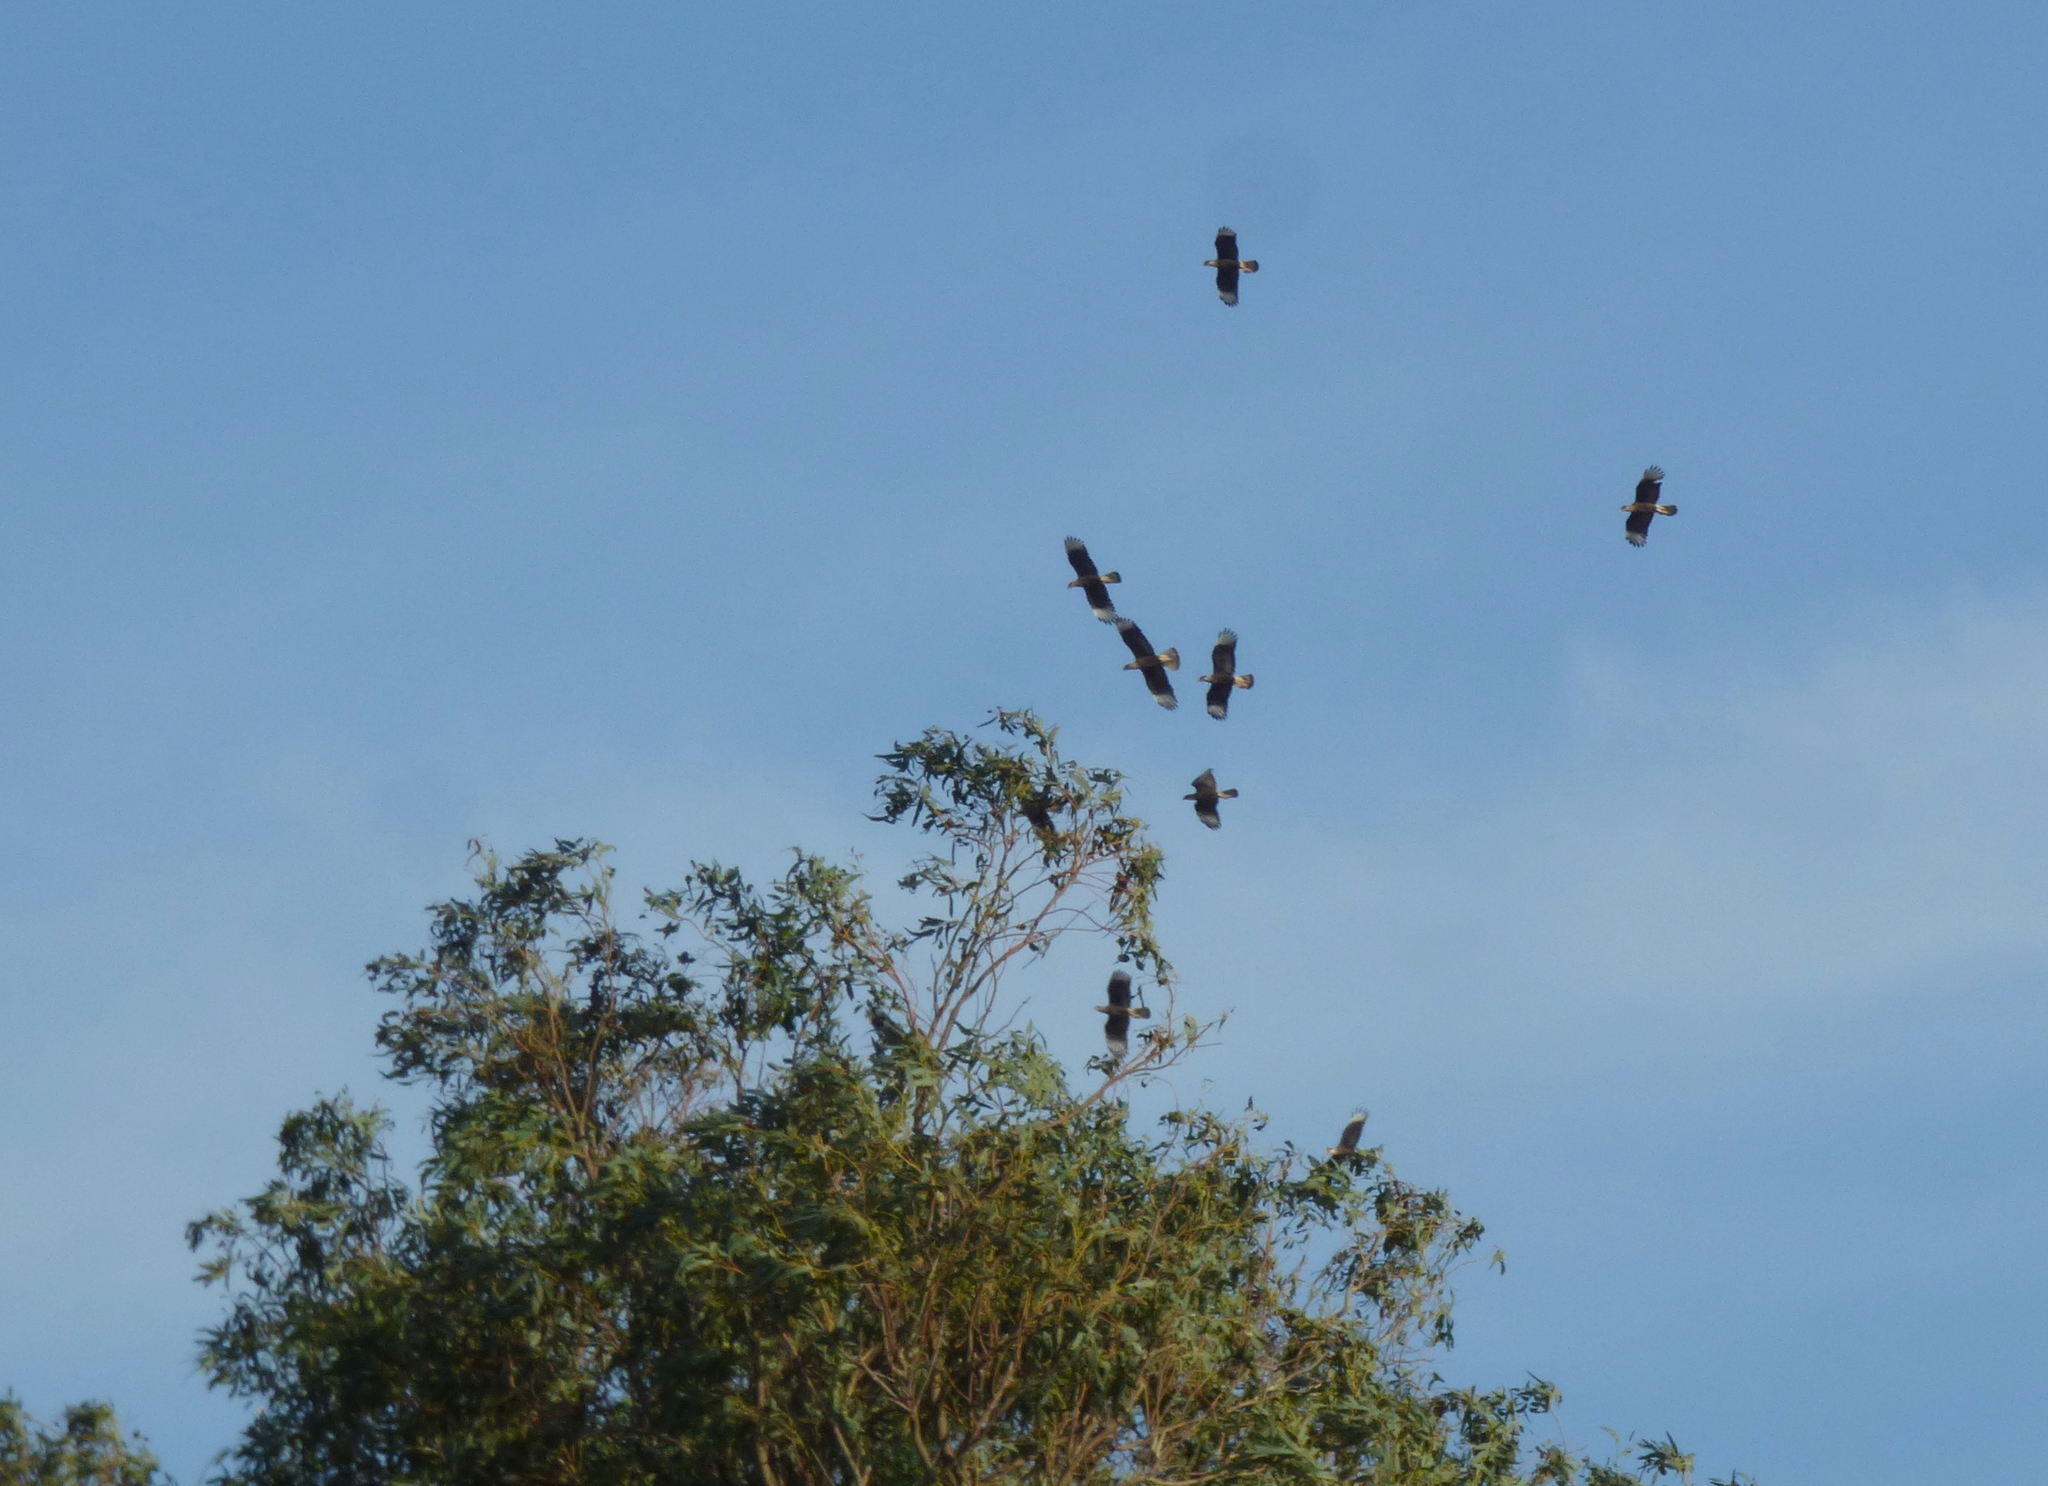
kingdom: Animalia
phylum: Chordata
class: Aves
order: Falconiformes
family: Falconidae
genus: Caracara
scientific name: Caracara plancus
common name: Southern caracara
